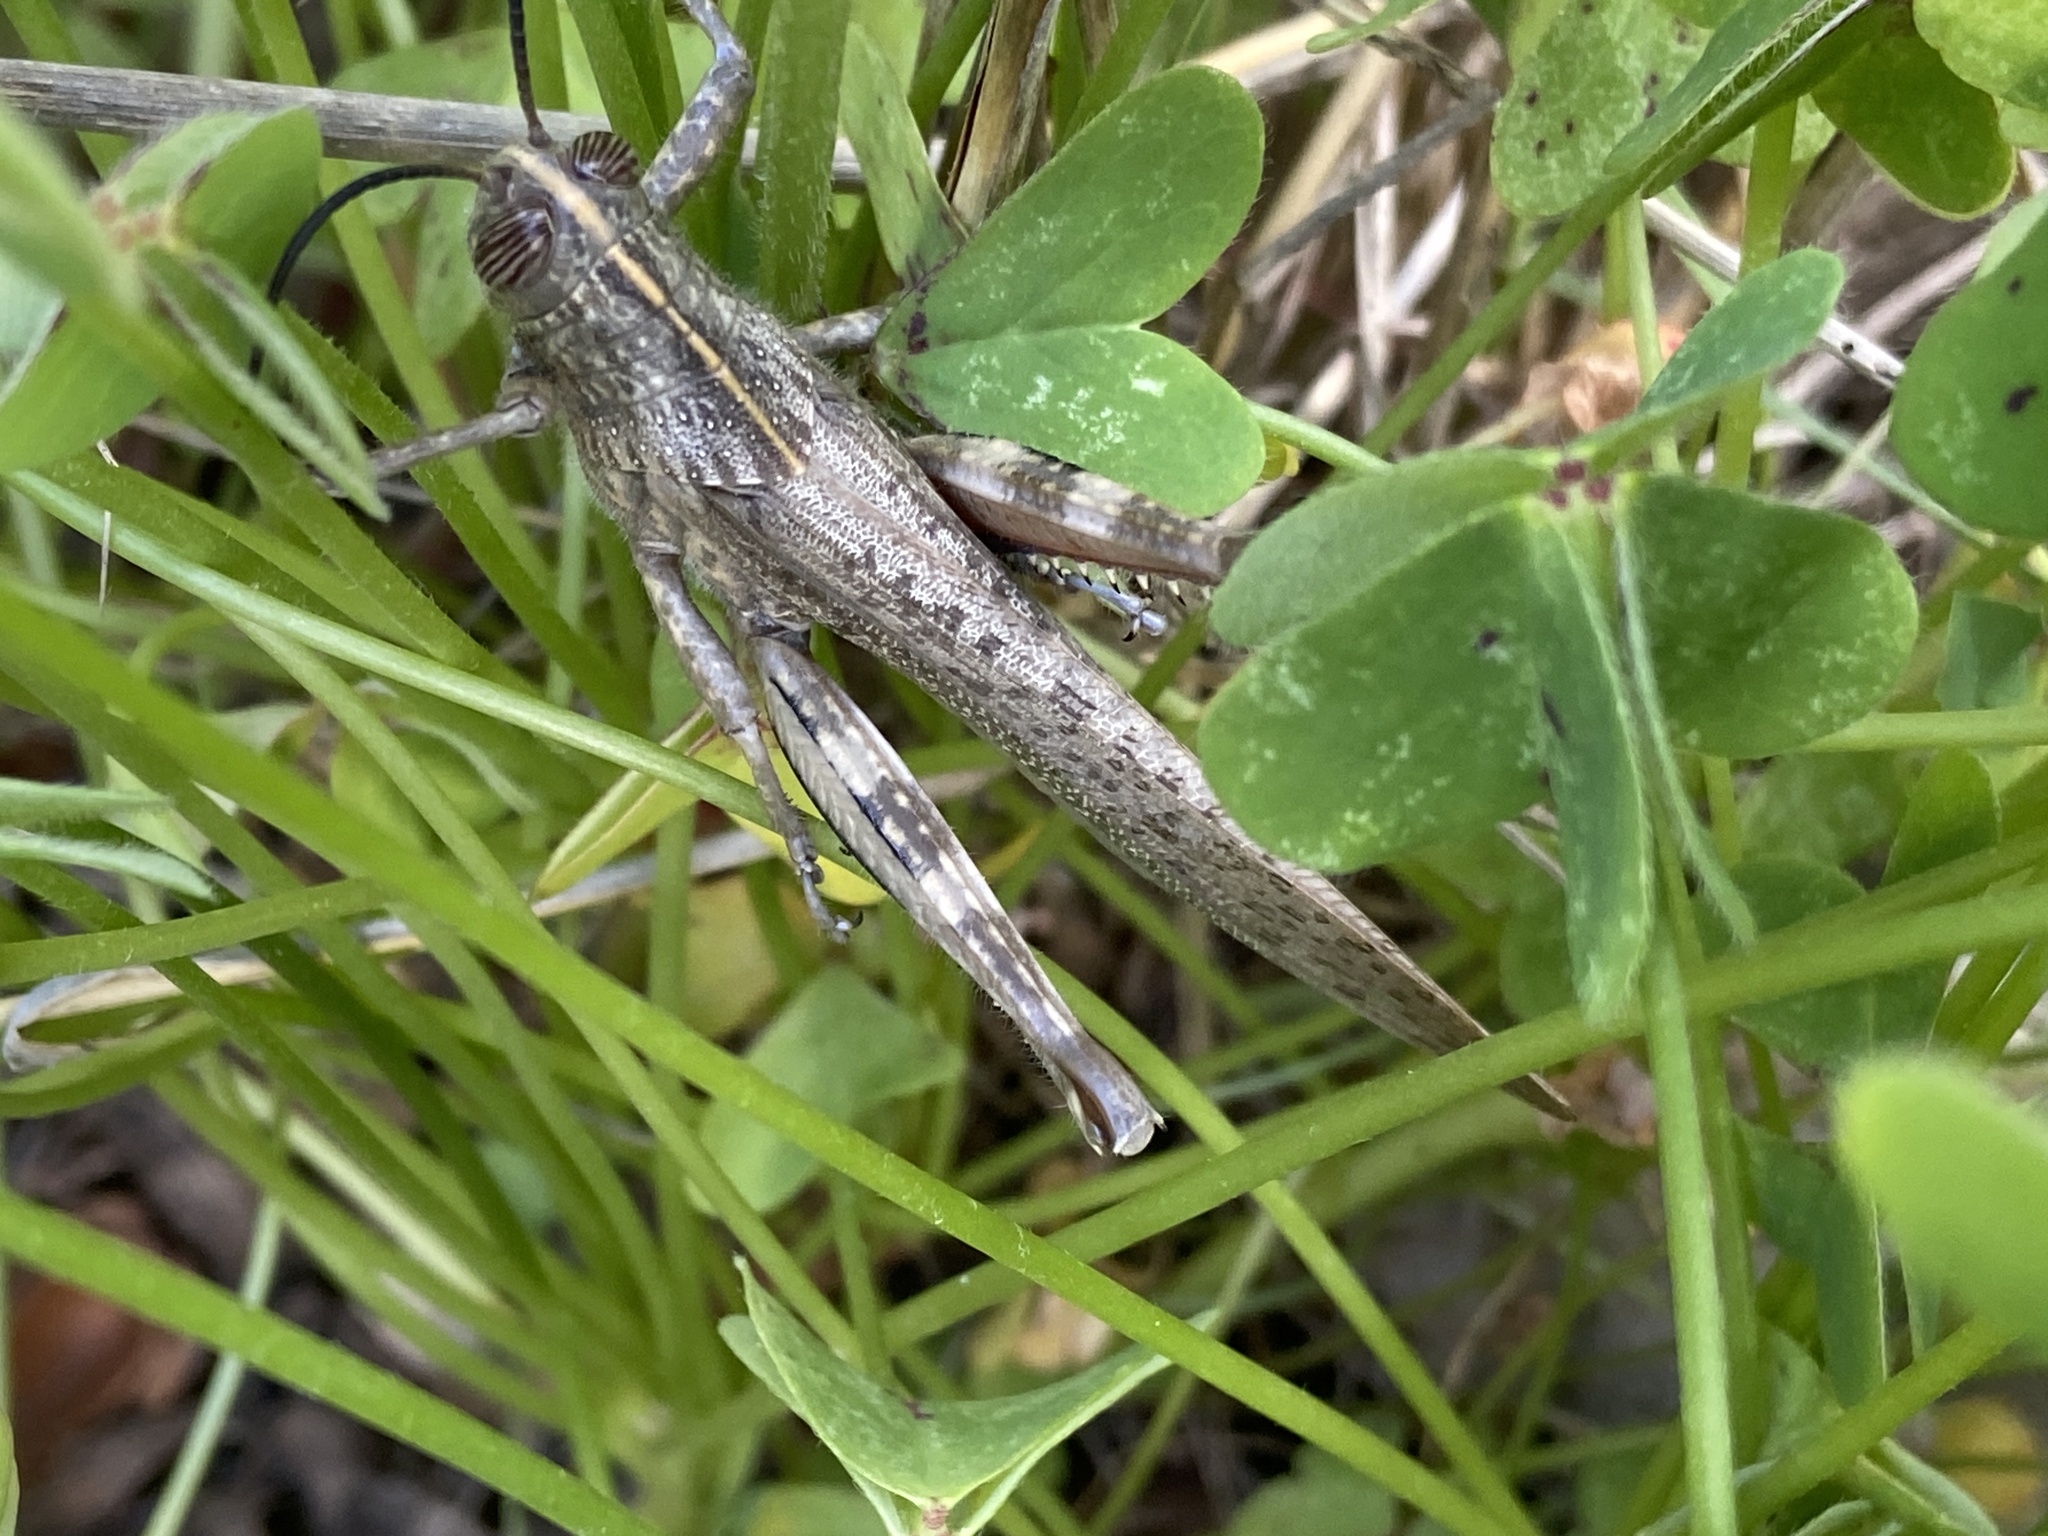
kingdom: Animalia
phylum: Arthropoda
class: Insecta
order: Orthoptera
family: Acrididae
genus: Anacridium
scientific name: Anacridium aegyptium
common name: Egyptian grasshopper
